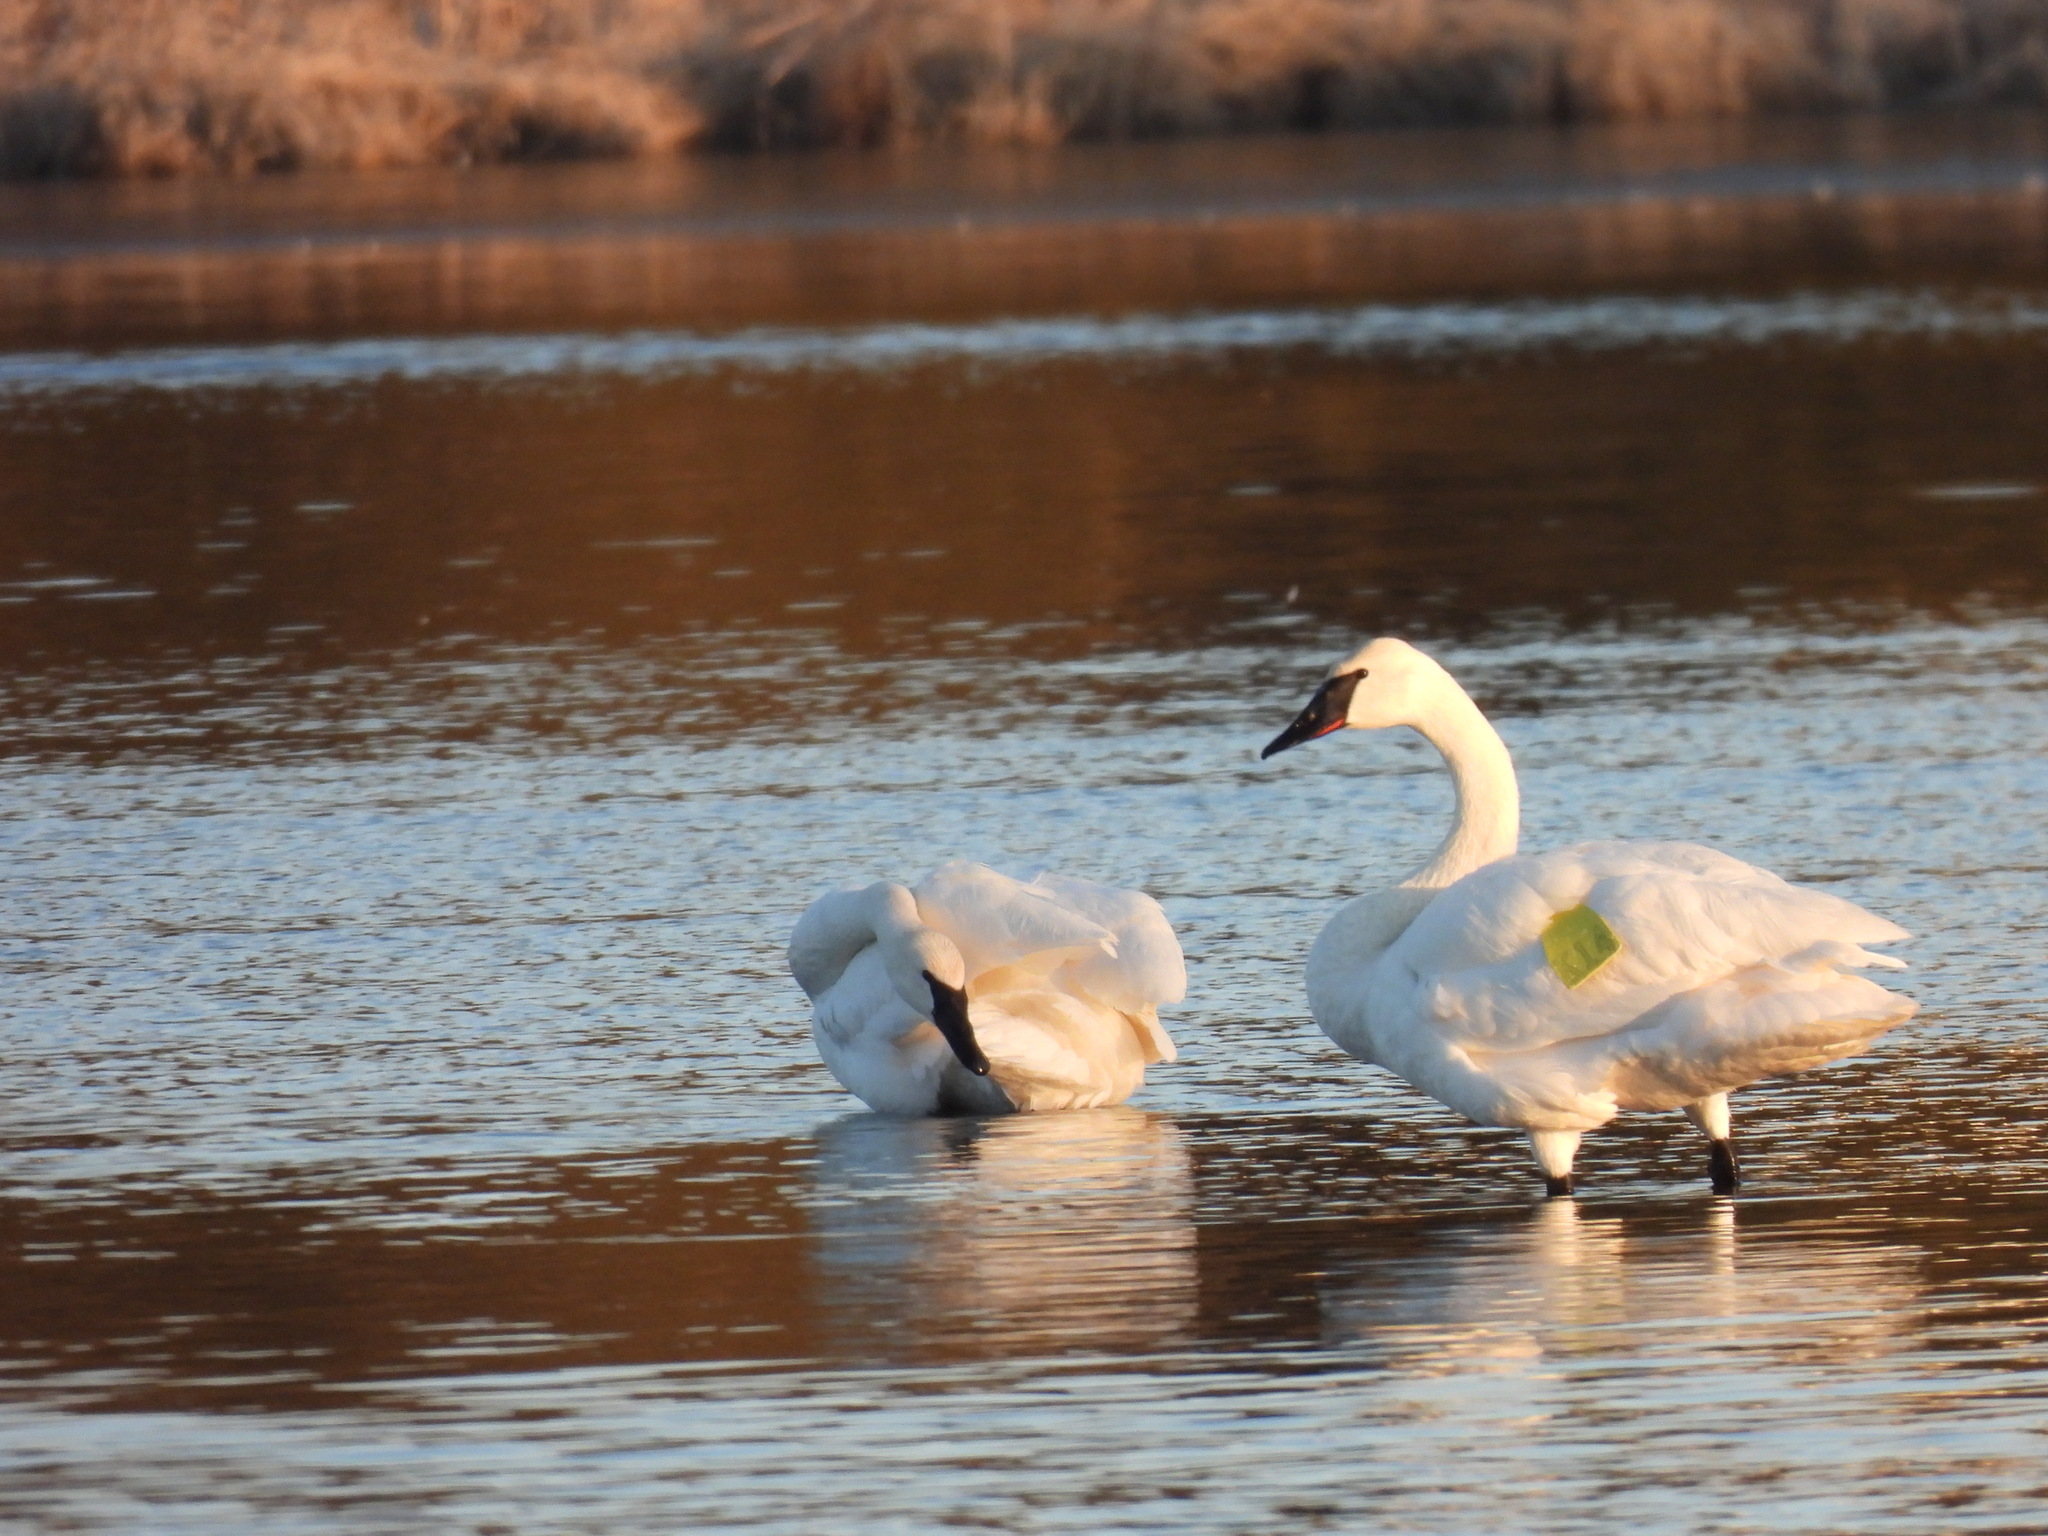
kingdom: Animalia
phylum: Chordata
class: Aves
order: Anseriformes
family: Anatidae
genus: Cygnus
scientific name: Cygnus buccinator
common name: Trumpeter swan
